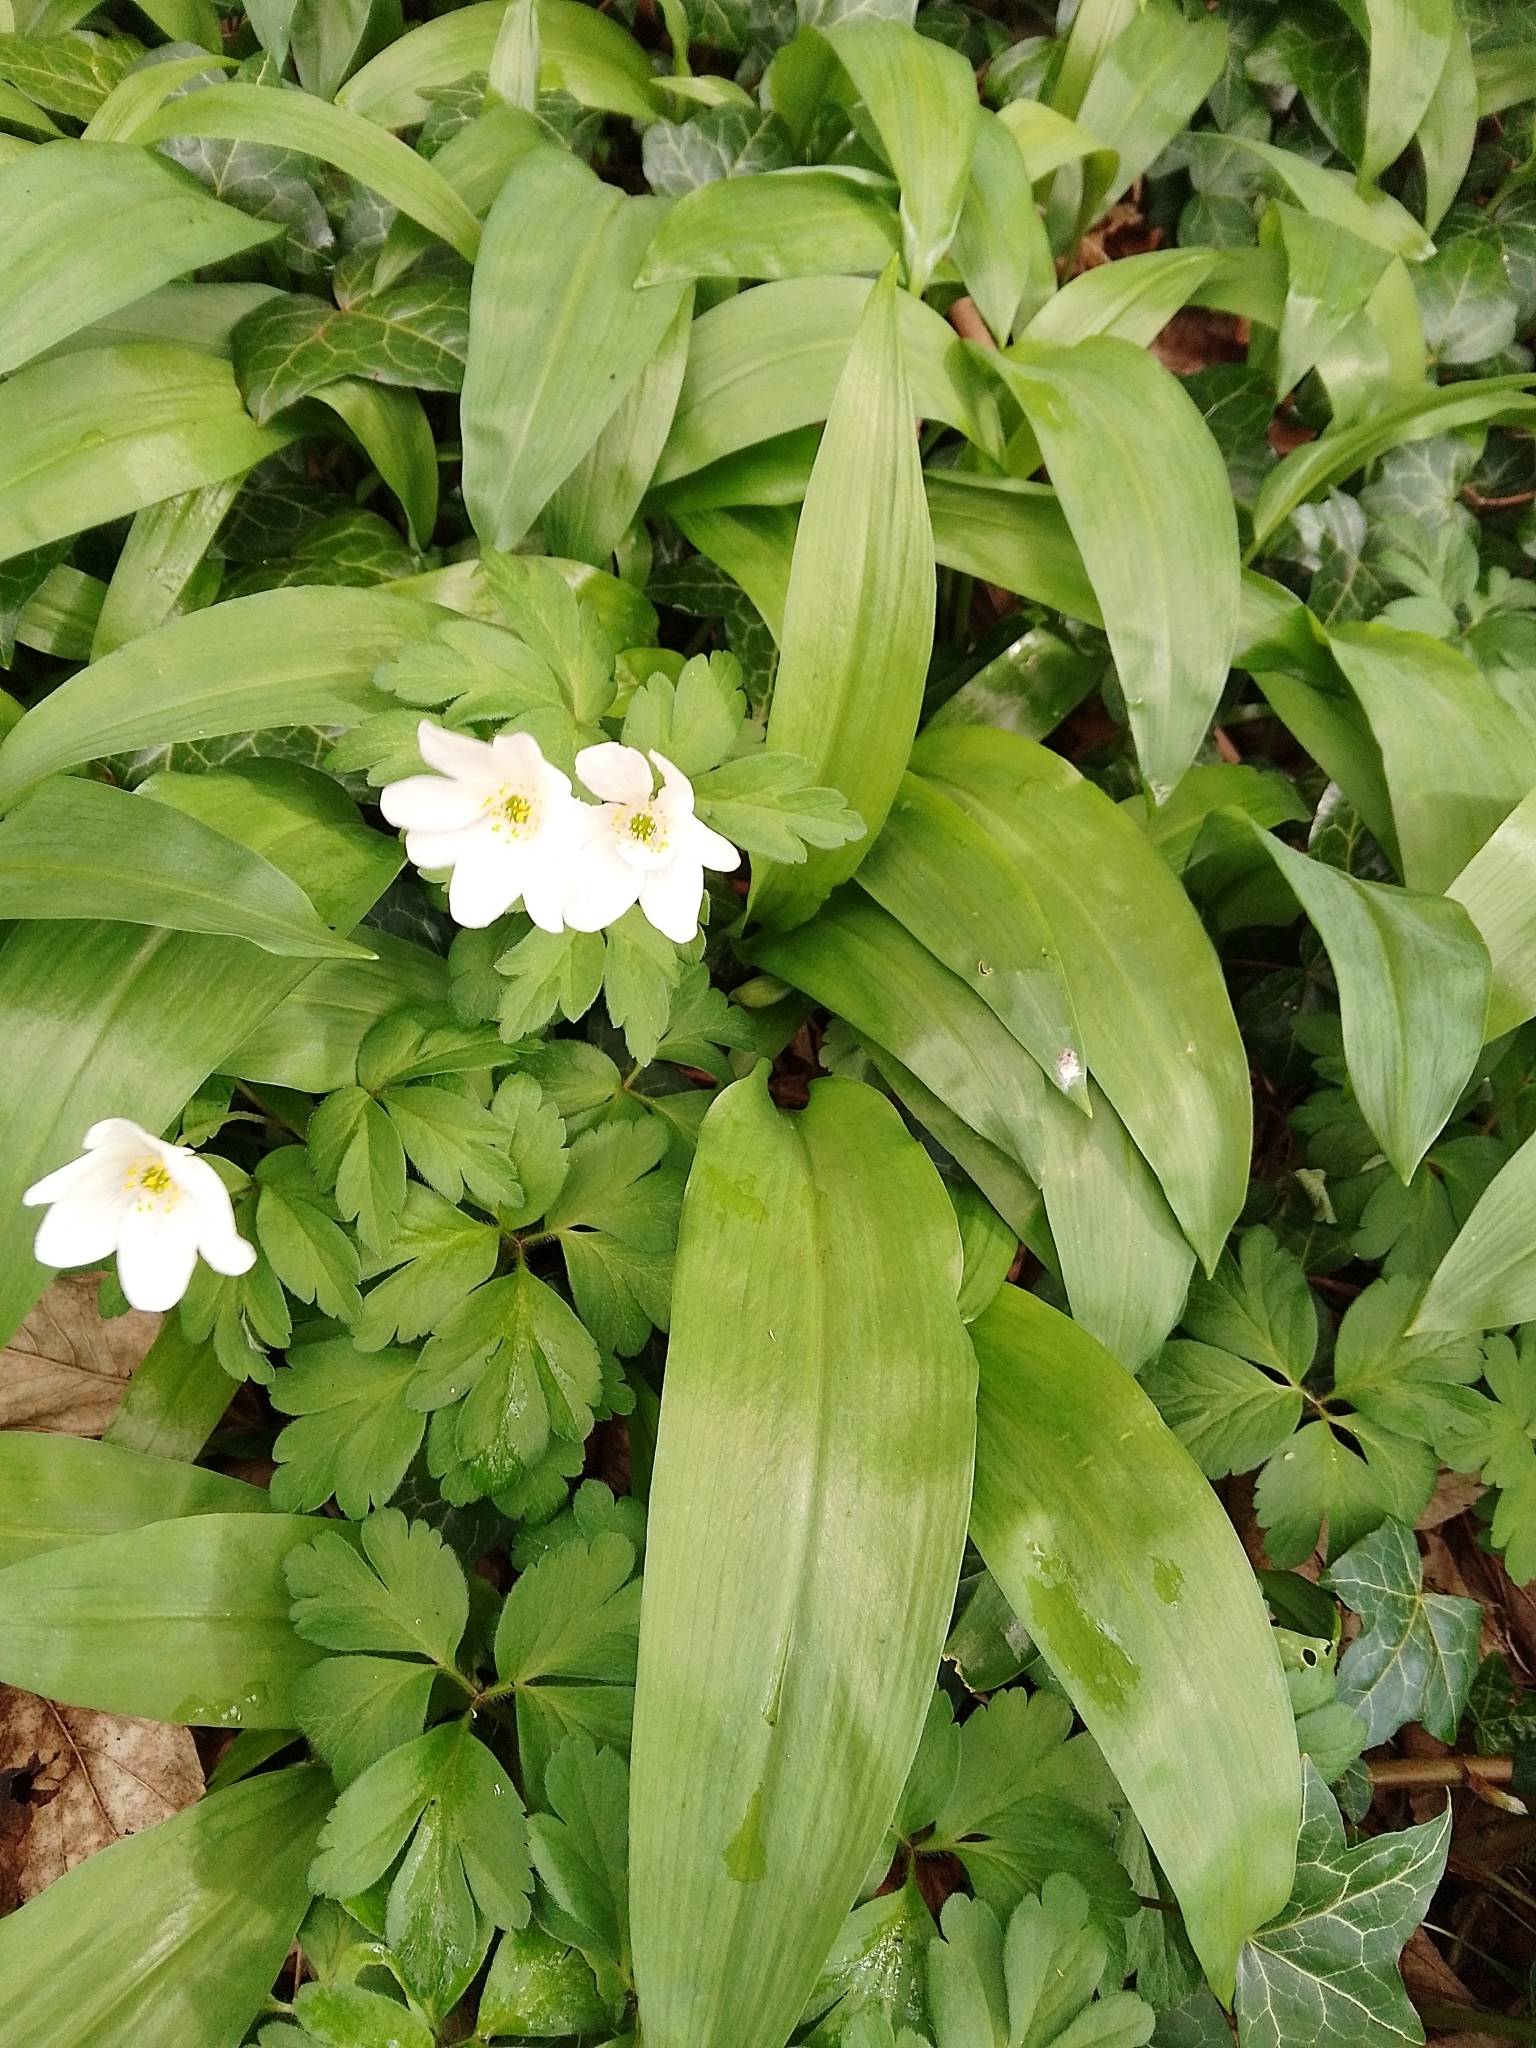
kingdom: Plantae
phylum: Tracheophyta
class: Magnoliopsida
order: Ranunculales
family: Ranunculaceae
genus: Anemone
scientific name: Anemone nemorosa
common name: Wood anemone
